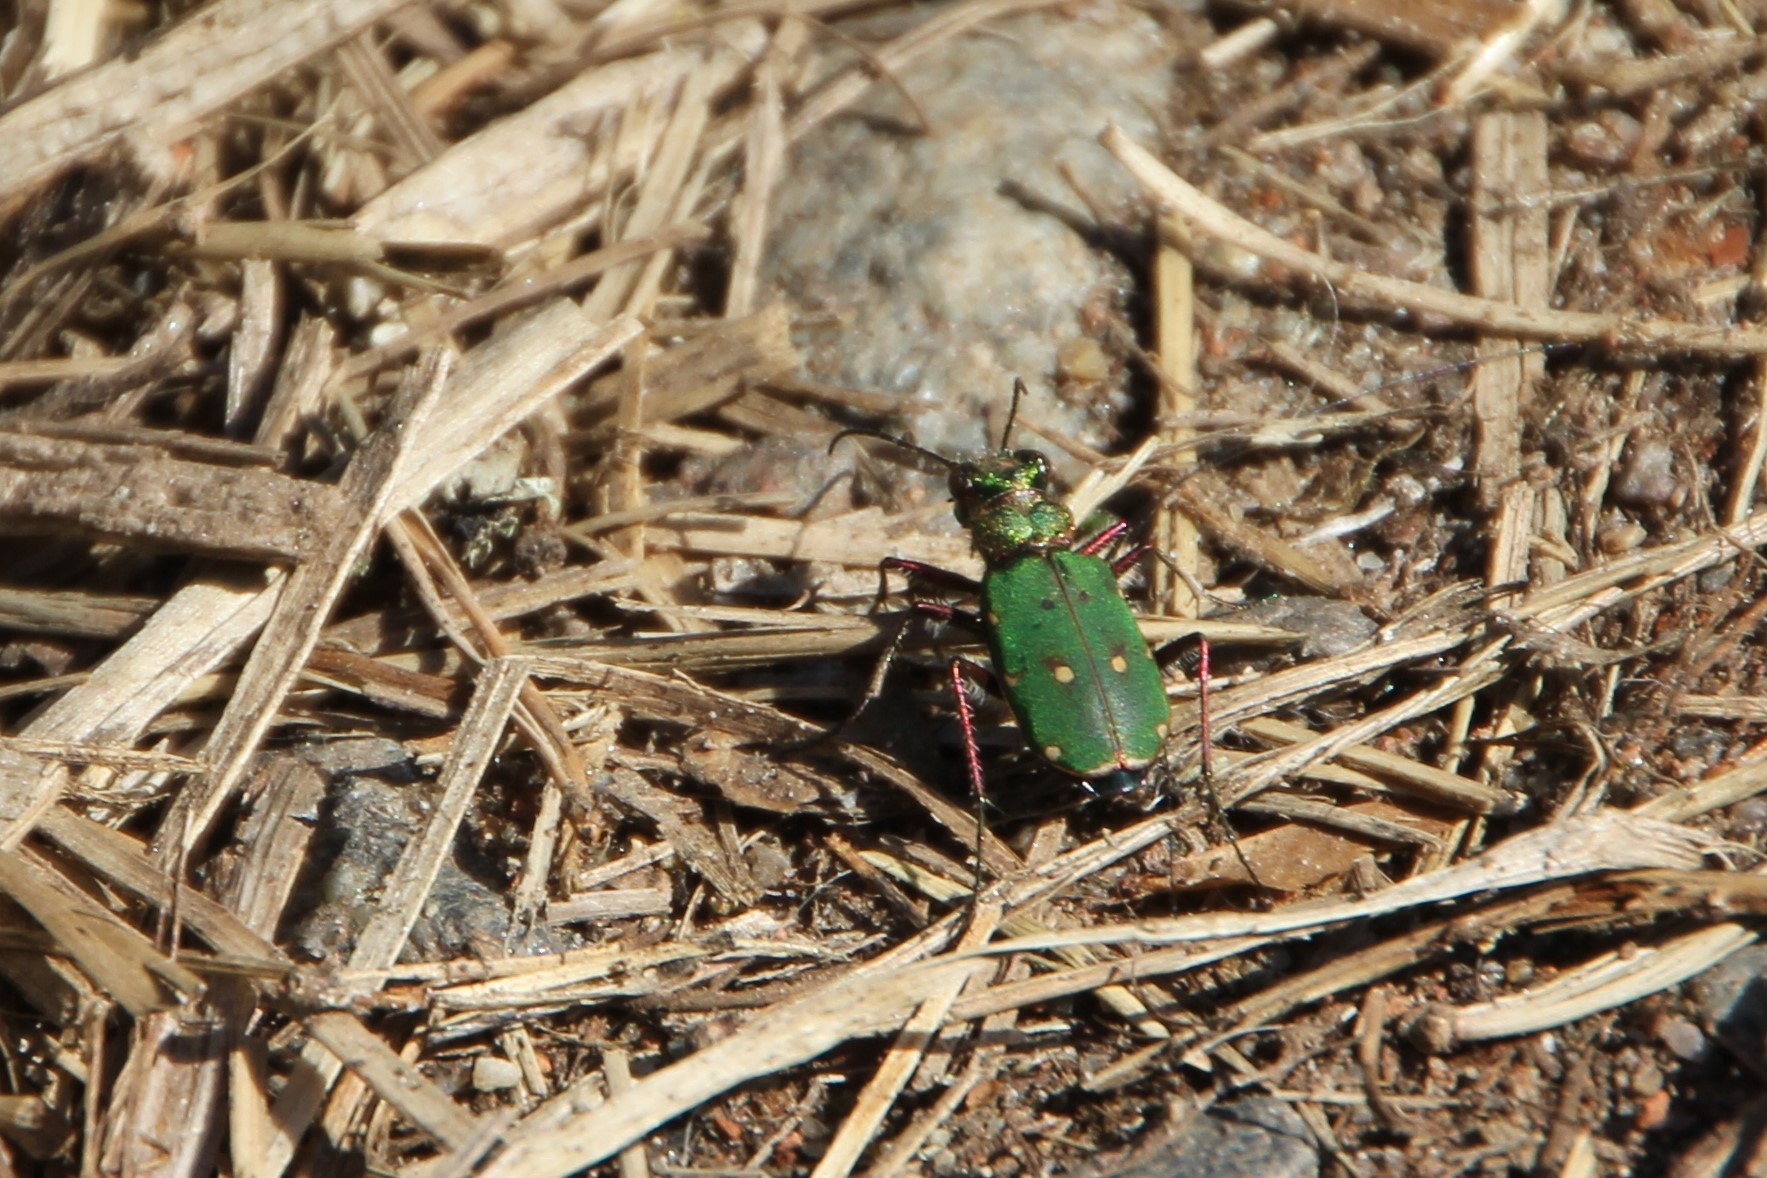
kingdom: Animalia
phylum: Arthropoda
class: Insecta
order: Coleoptera
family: Carabidae
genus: Cicindela
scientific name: Cicindela campestris
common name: Common tiger beetle
